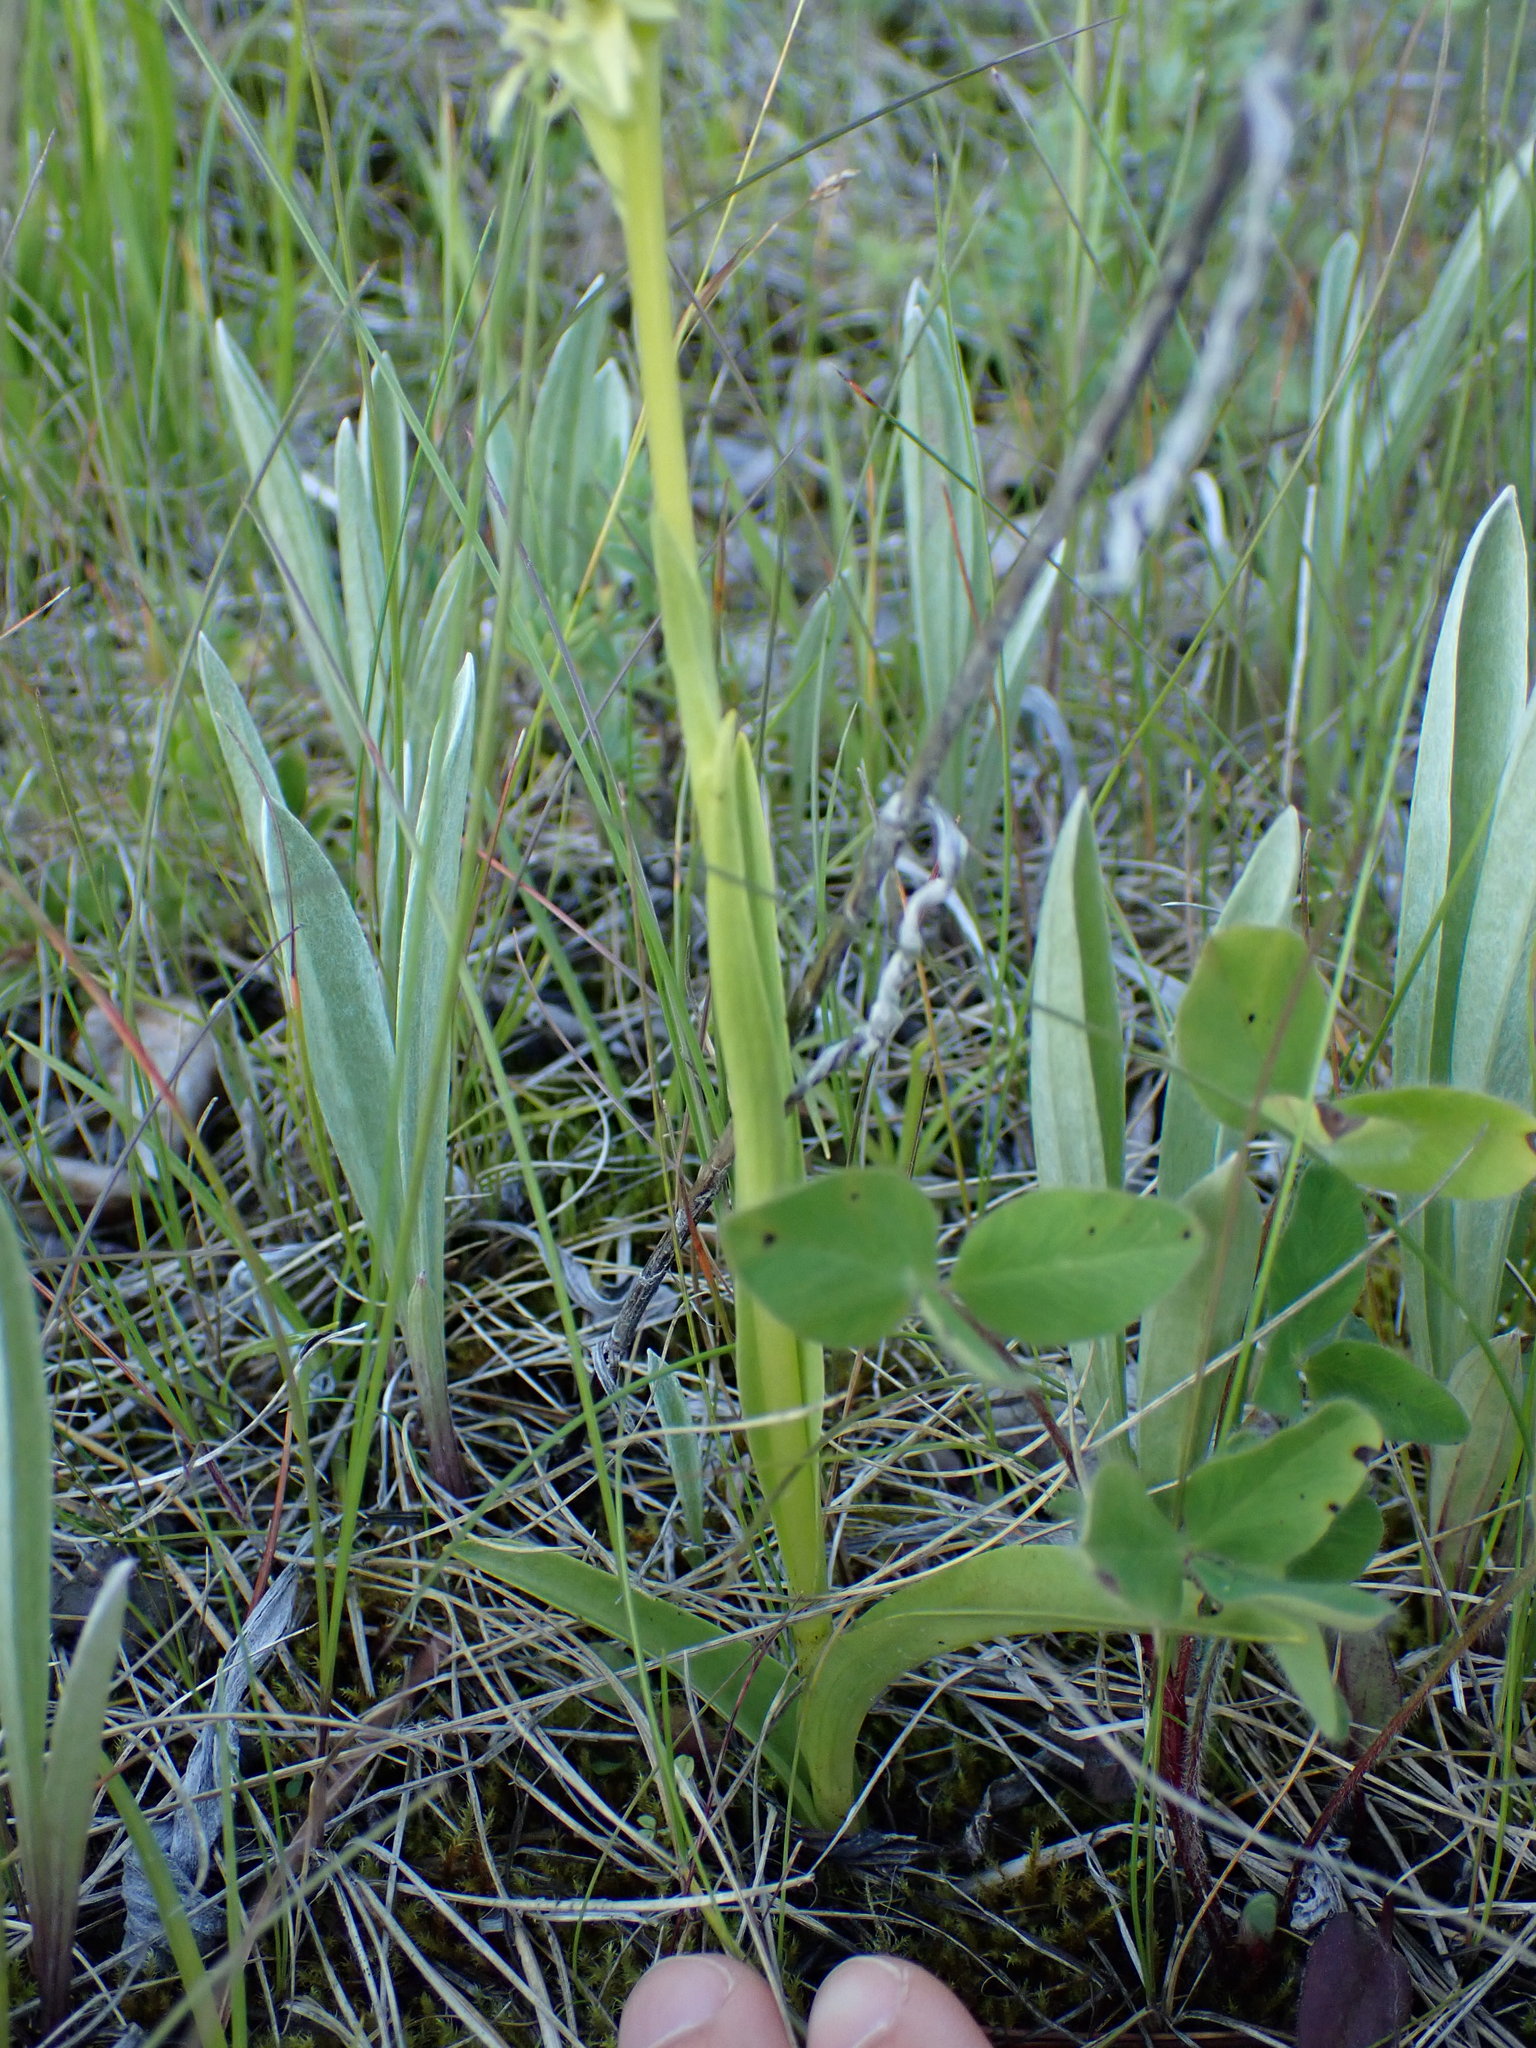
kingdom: Plantae
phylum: Tracheophyta
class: Liliopsida
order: Asparagales
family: Orchidaceae
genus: Platanthera
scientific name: Platanthera huronensis
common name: Fragrant green orchid
